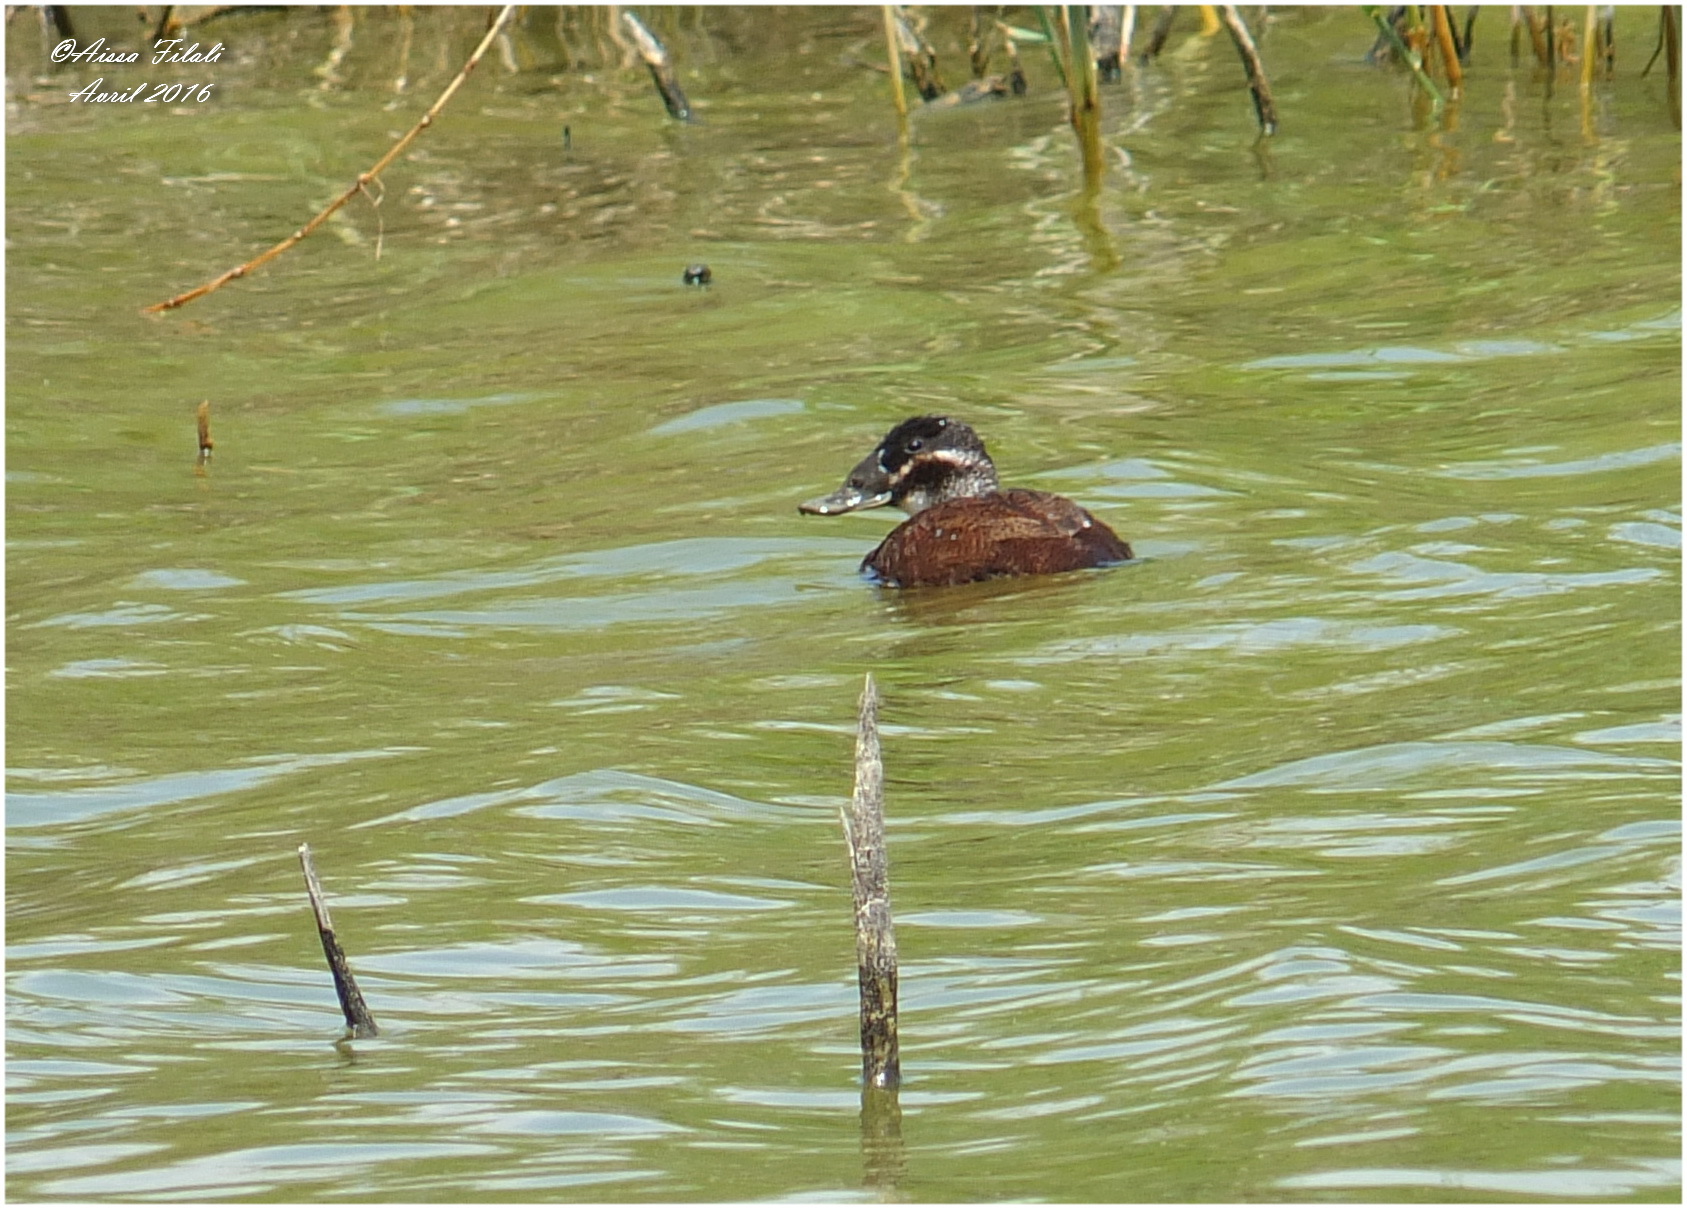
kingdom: Animalia
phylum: Chordata
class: Aves
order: Anseriformes
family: Anatidae
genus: Oxyura
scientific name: Oxyura leucocephala
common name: White-headed duck
